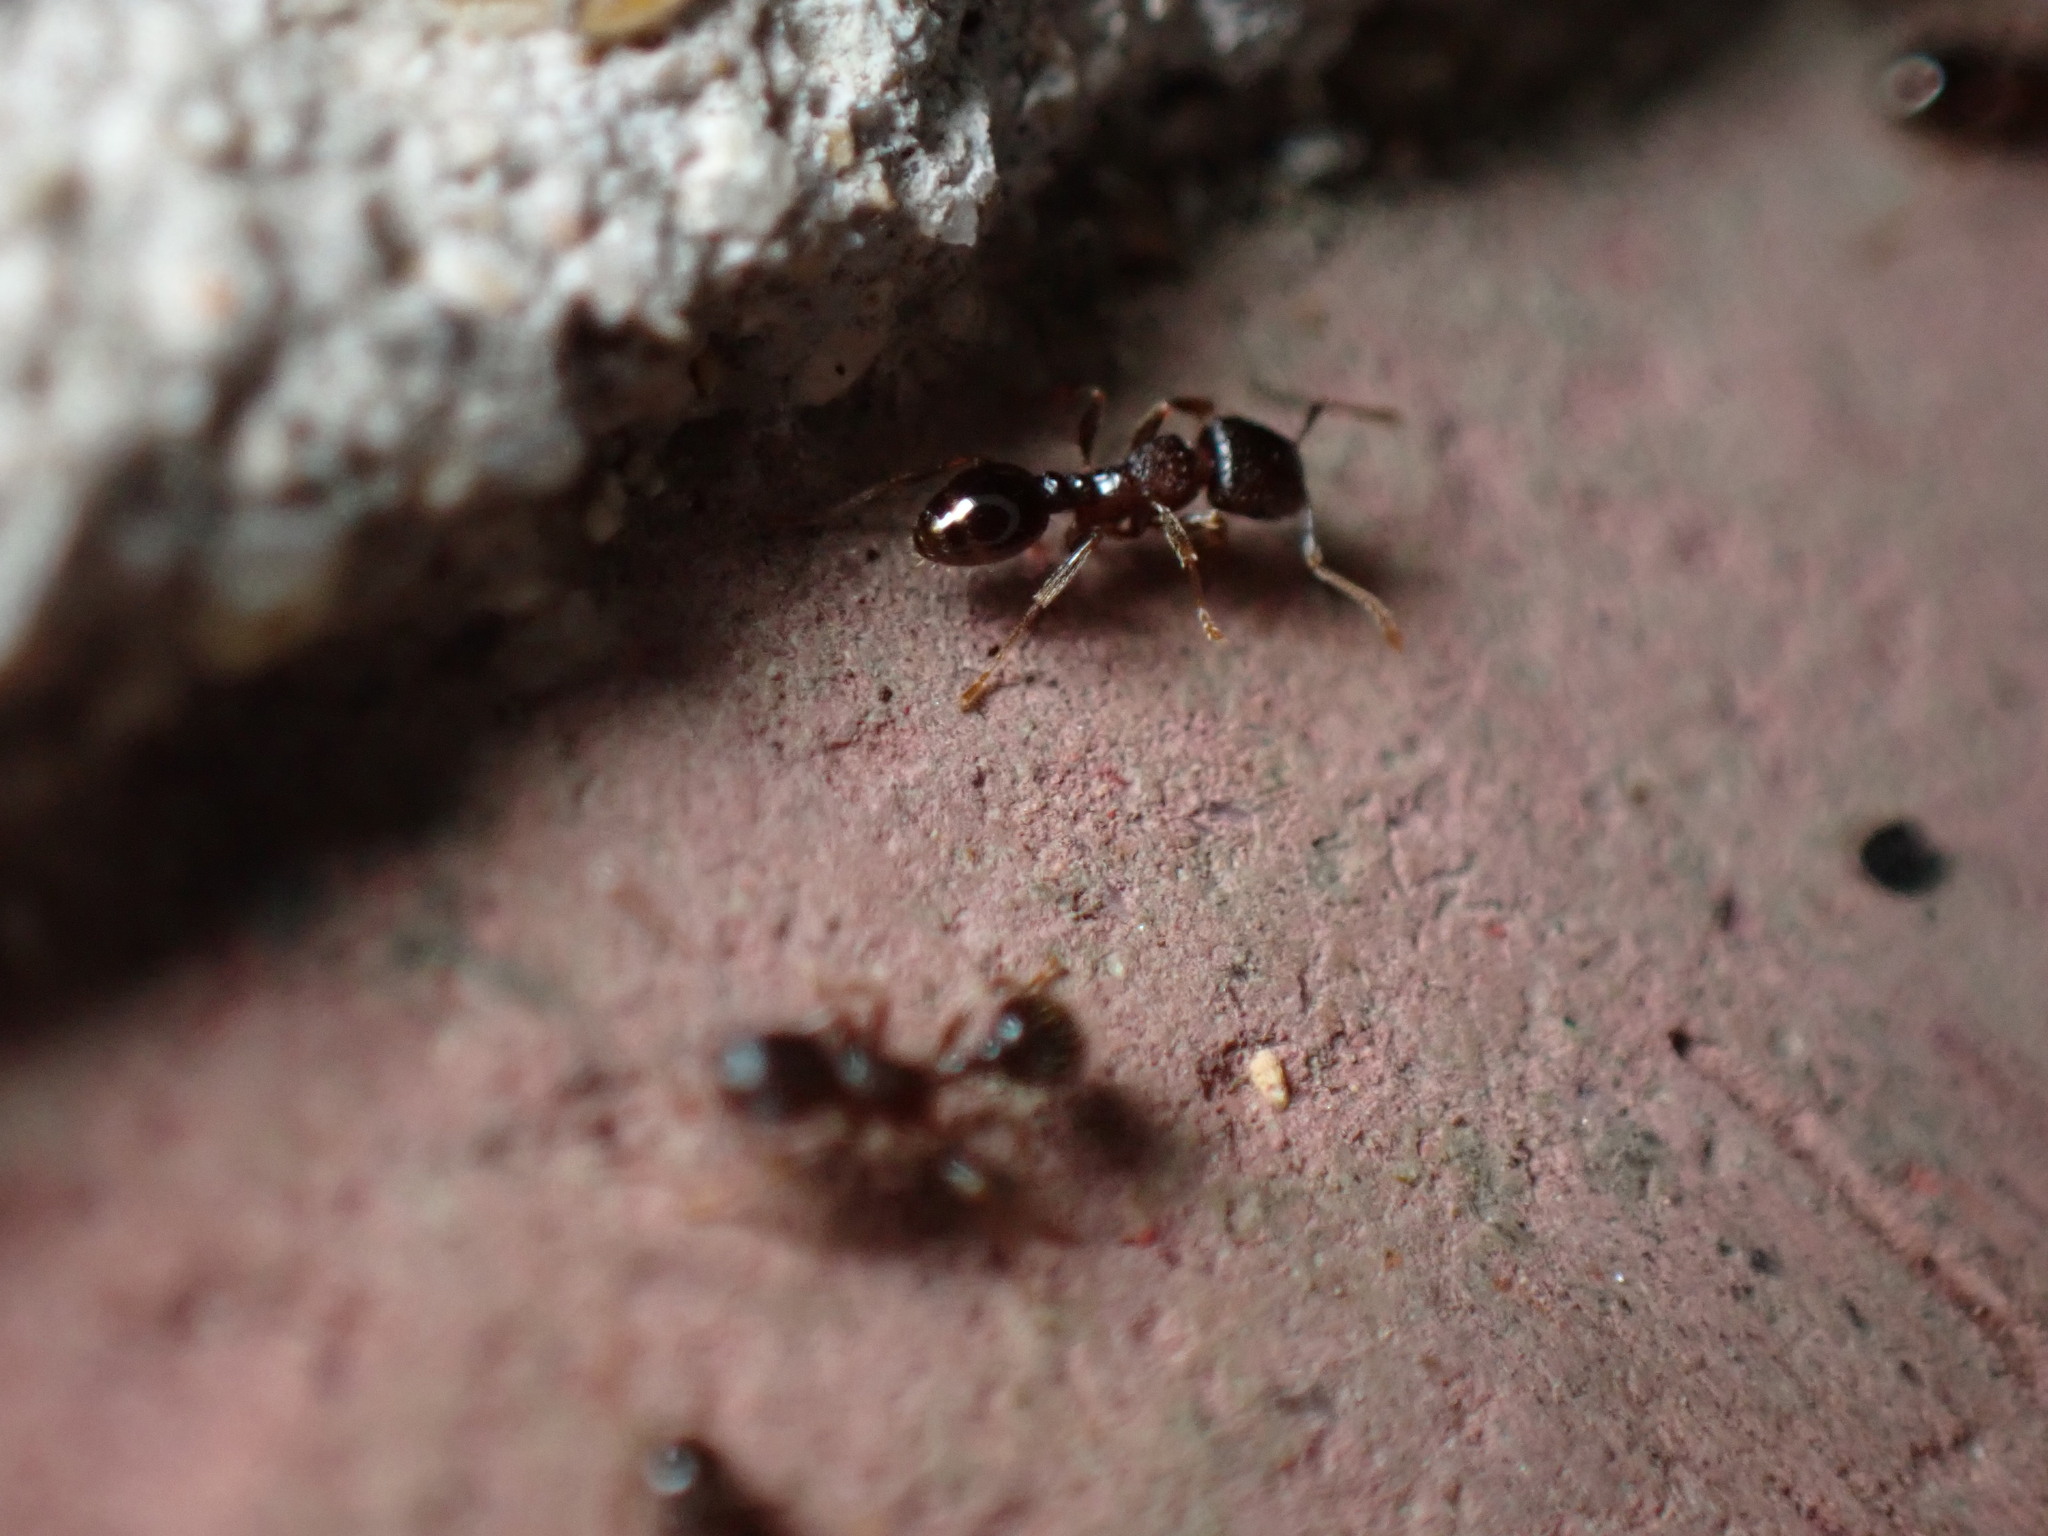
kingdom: Animalia
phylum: Arthropoda
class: Insecta
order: Hymenoptera
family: Formicidae
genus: Tetramorium
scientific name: Tetramorium tsushimae
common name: Ant
